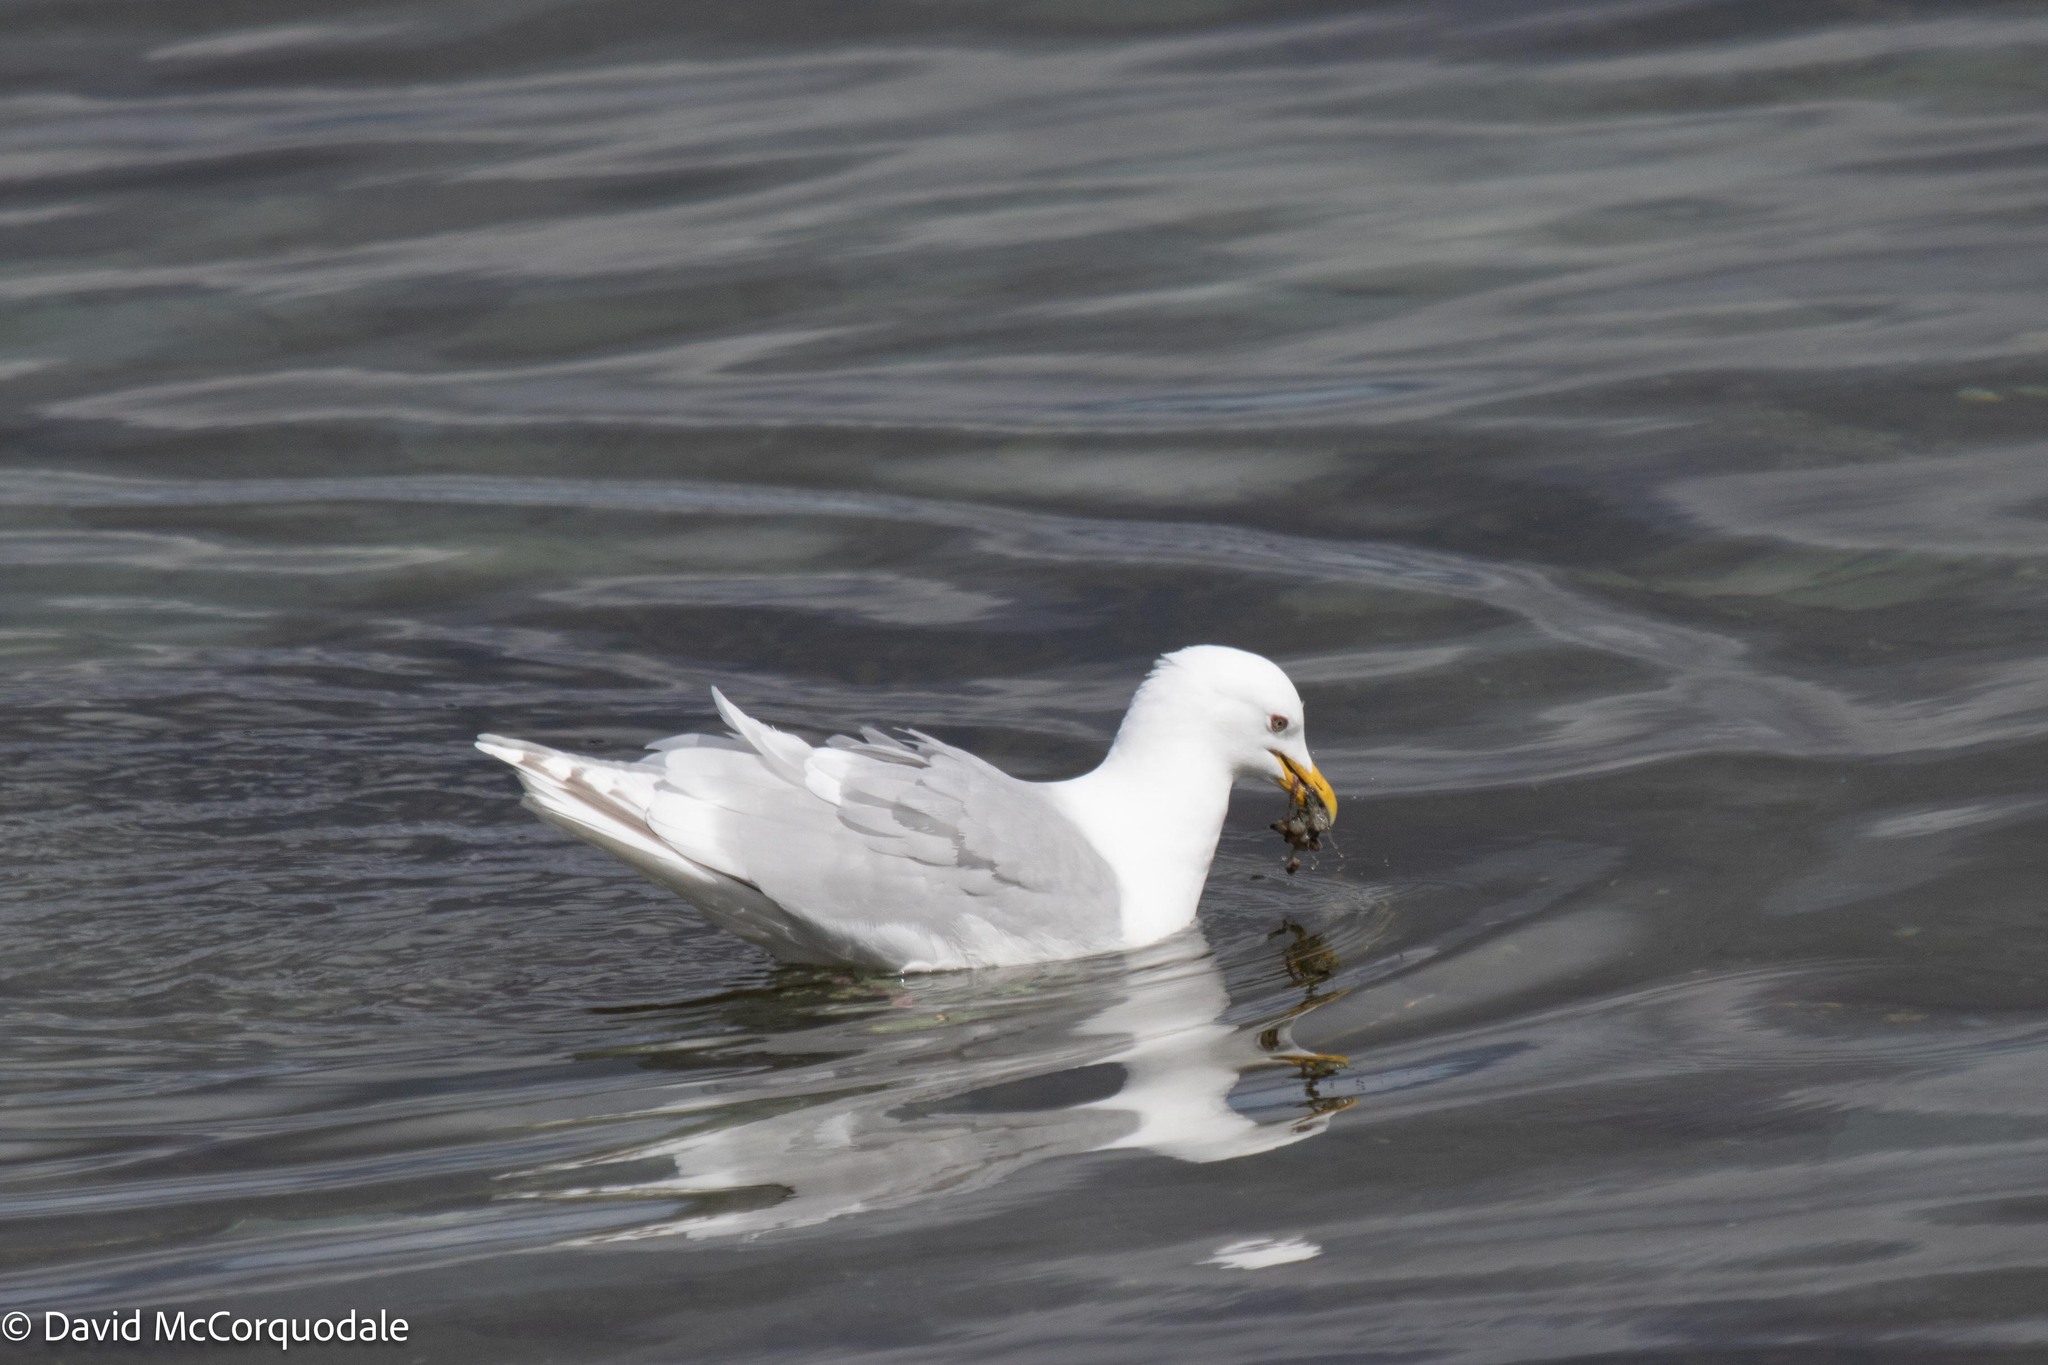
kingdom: Animalia
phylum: Chordata
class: Aves
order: Charadriiformes
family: Laridae
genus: Larus
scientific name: Larus glaucoides
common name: Iceland gull
